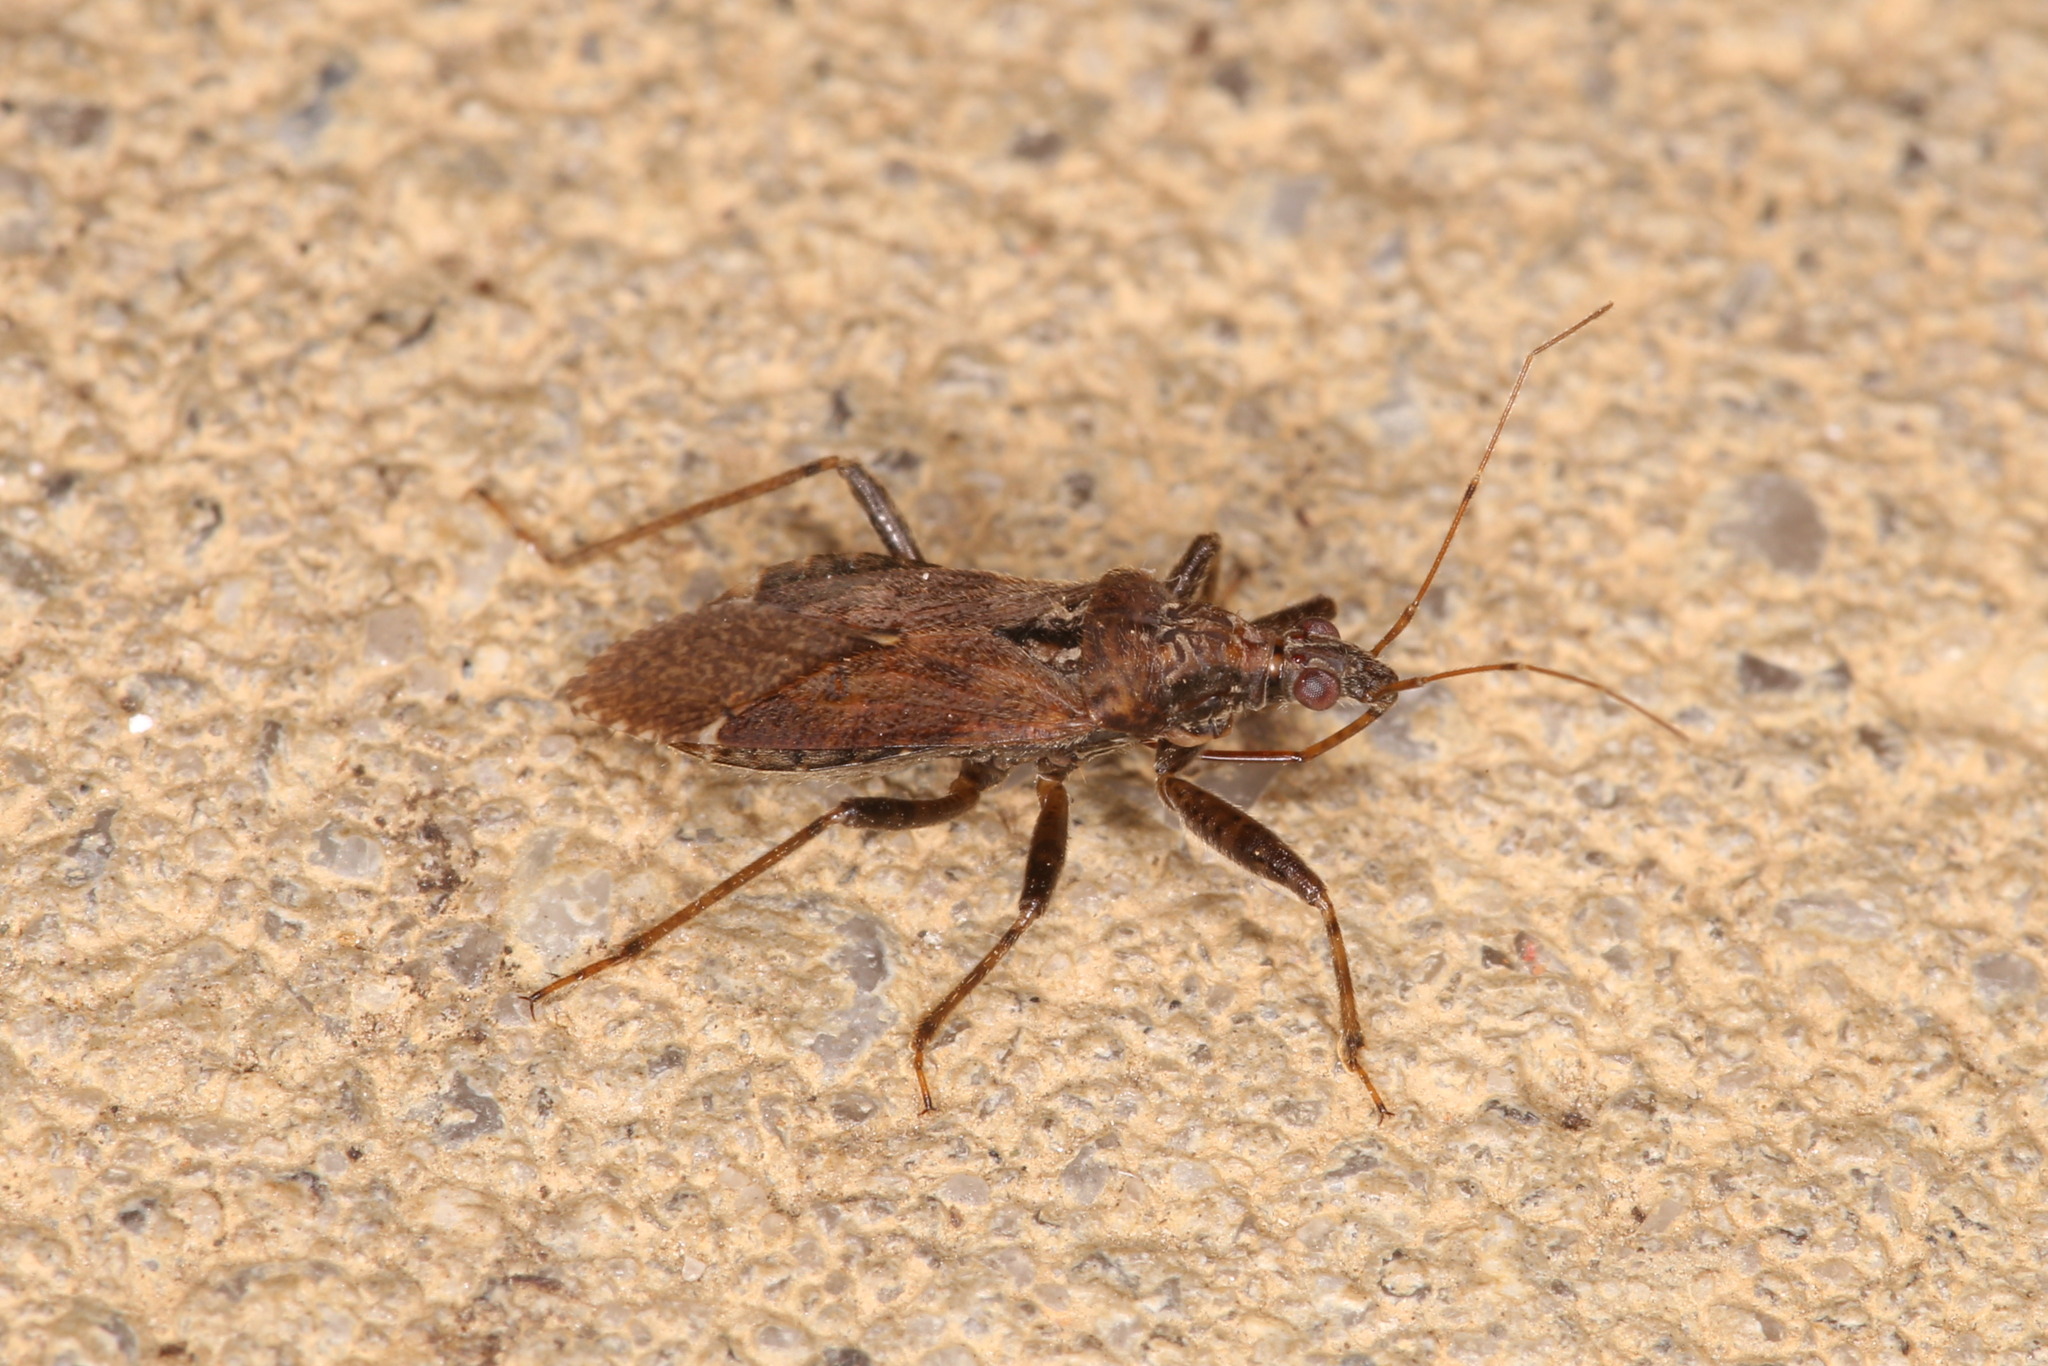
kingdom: Animalia
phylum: Arthropoda
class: Insecta
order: Hemiptera
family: Nabidae
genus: Himacerus
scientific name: Himacerus mirmicoides
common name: Ant damsel bug
